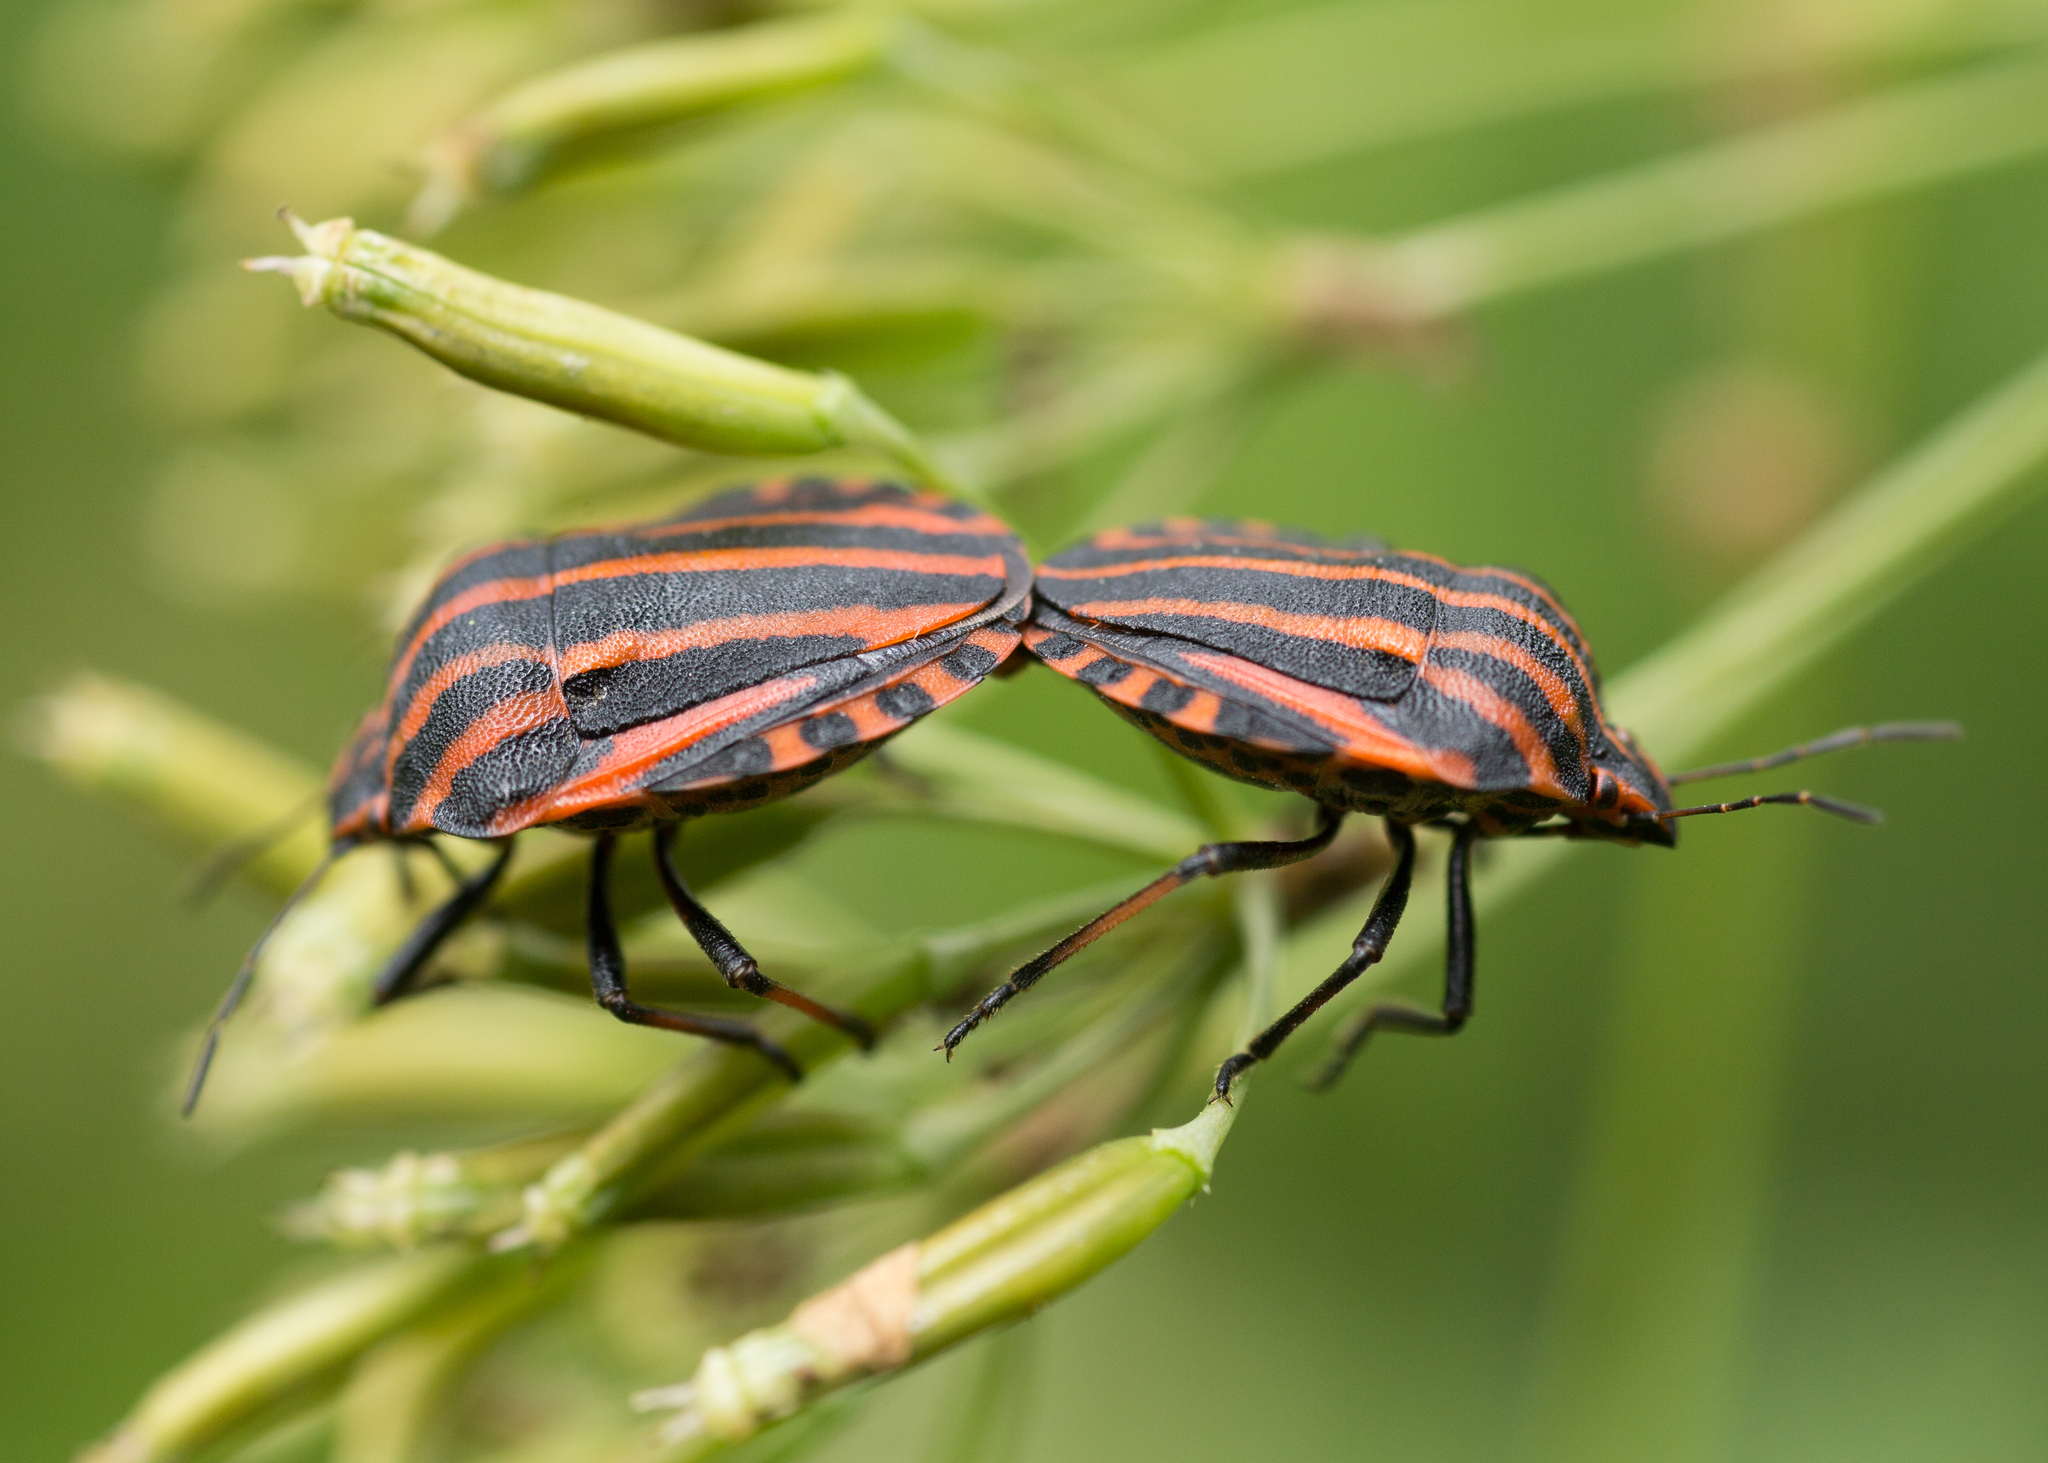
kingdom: Animalia
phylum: Arthropoda
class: Insecta
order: Hemiptera
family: Pentatomidae
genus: Graphosoma
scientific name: Graphosoma italicum
